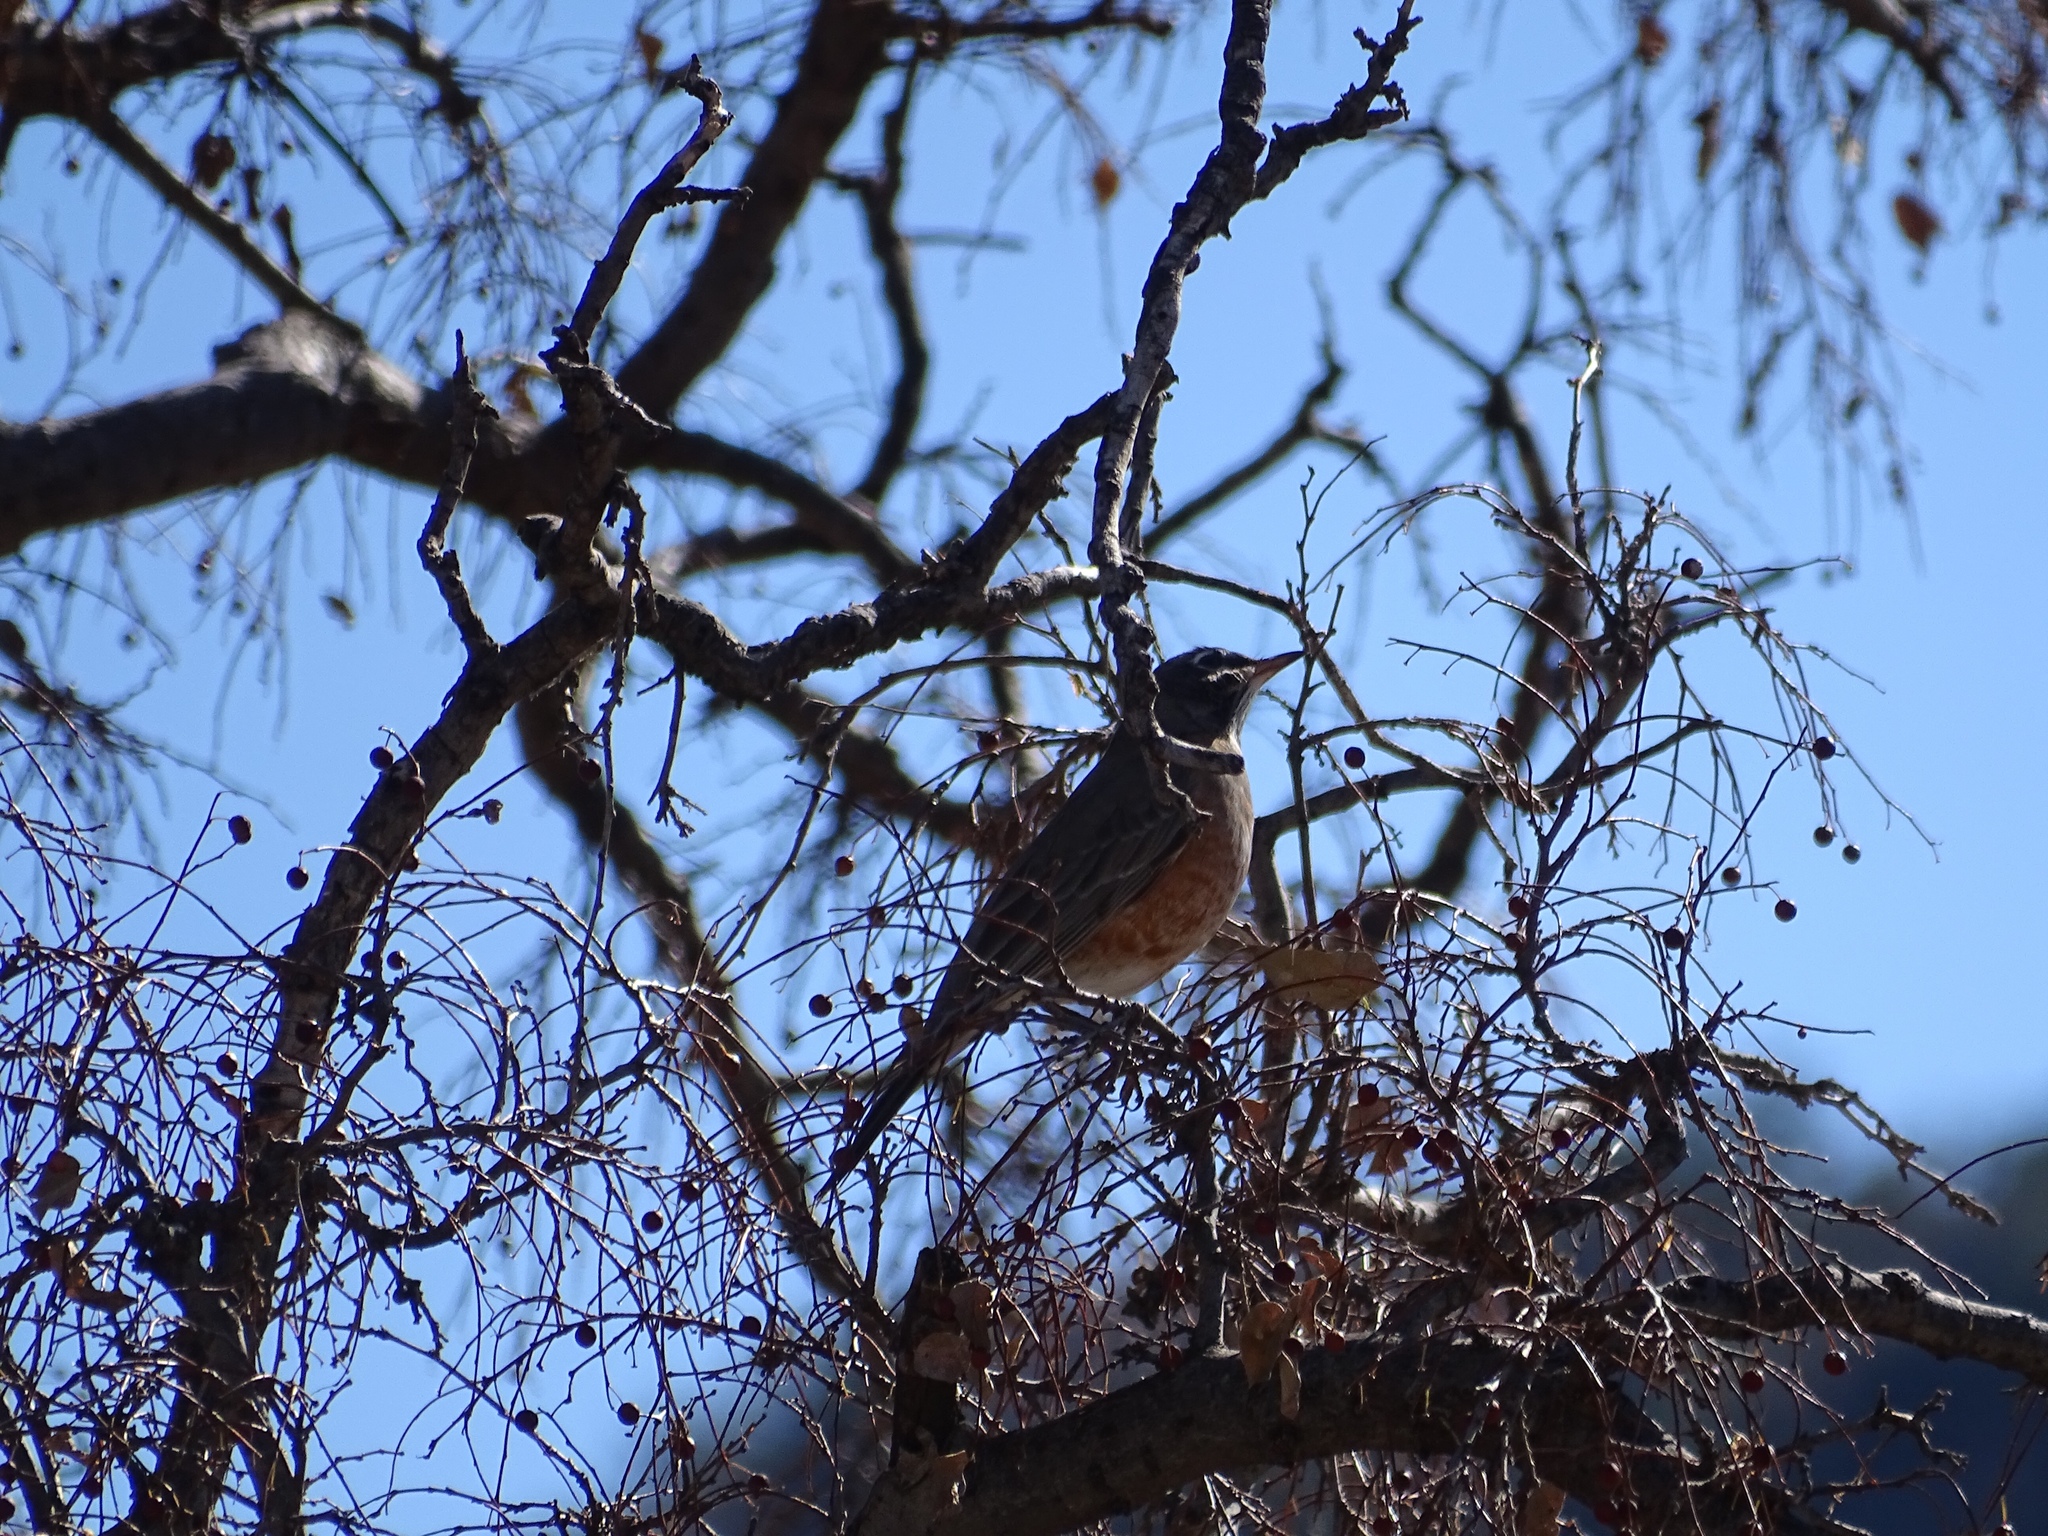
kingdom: Animalia
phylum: Chordata
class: Aves
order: Passeriformes
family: Turdidae
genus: Turdus
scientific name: Turdus migratorius
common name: American robin
